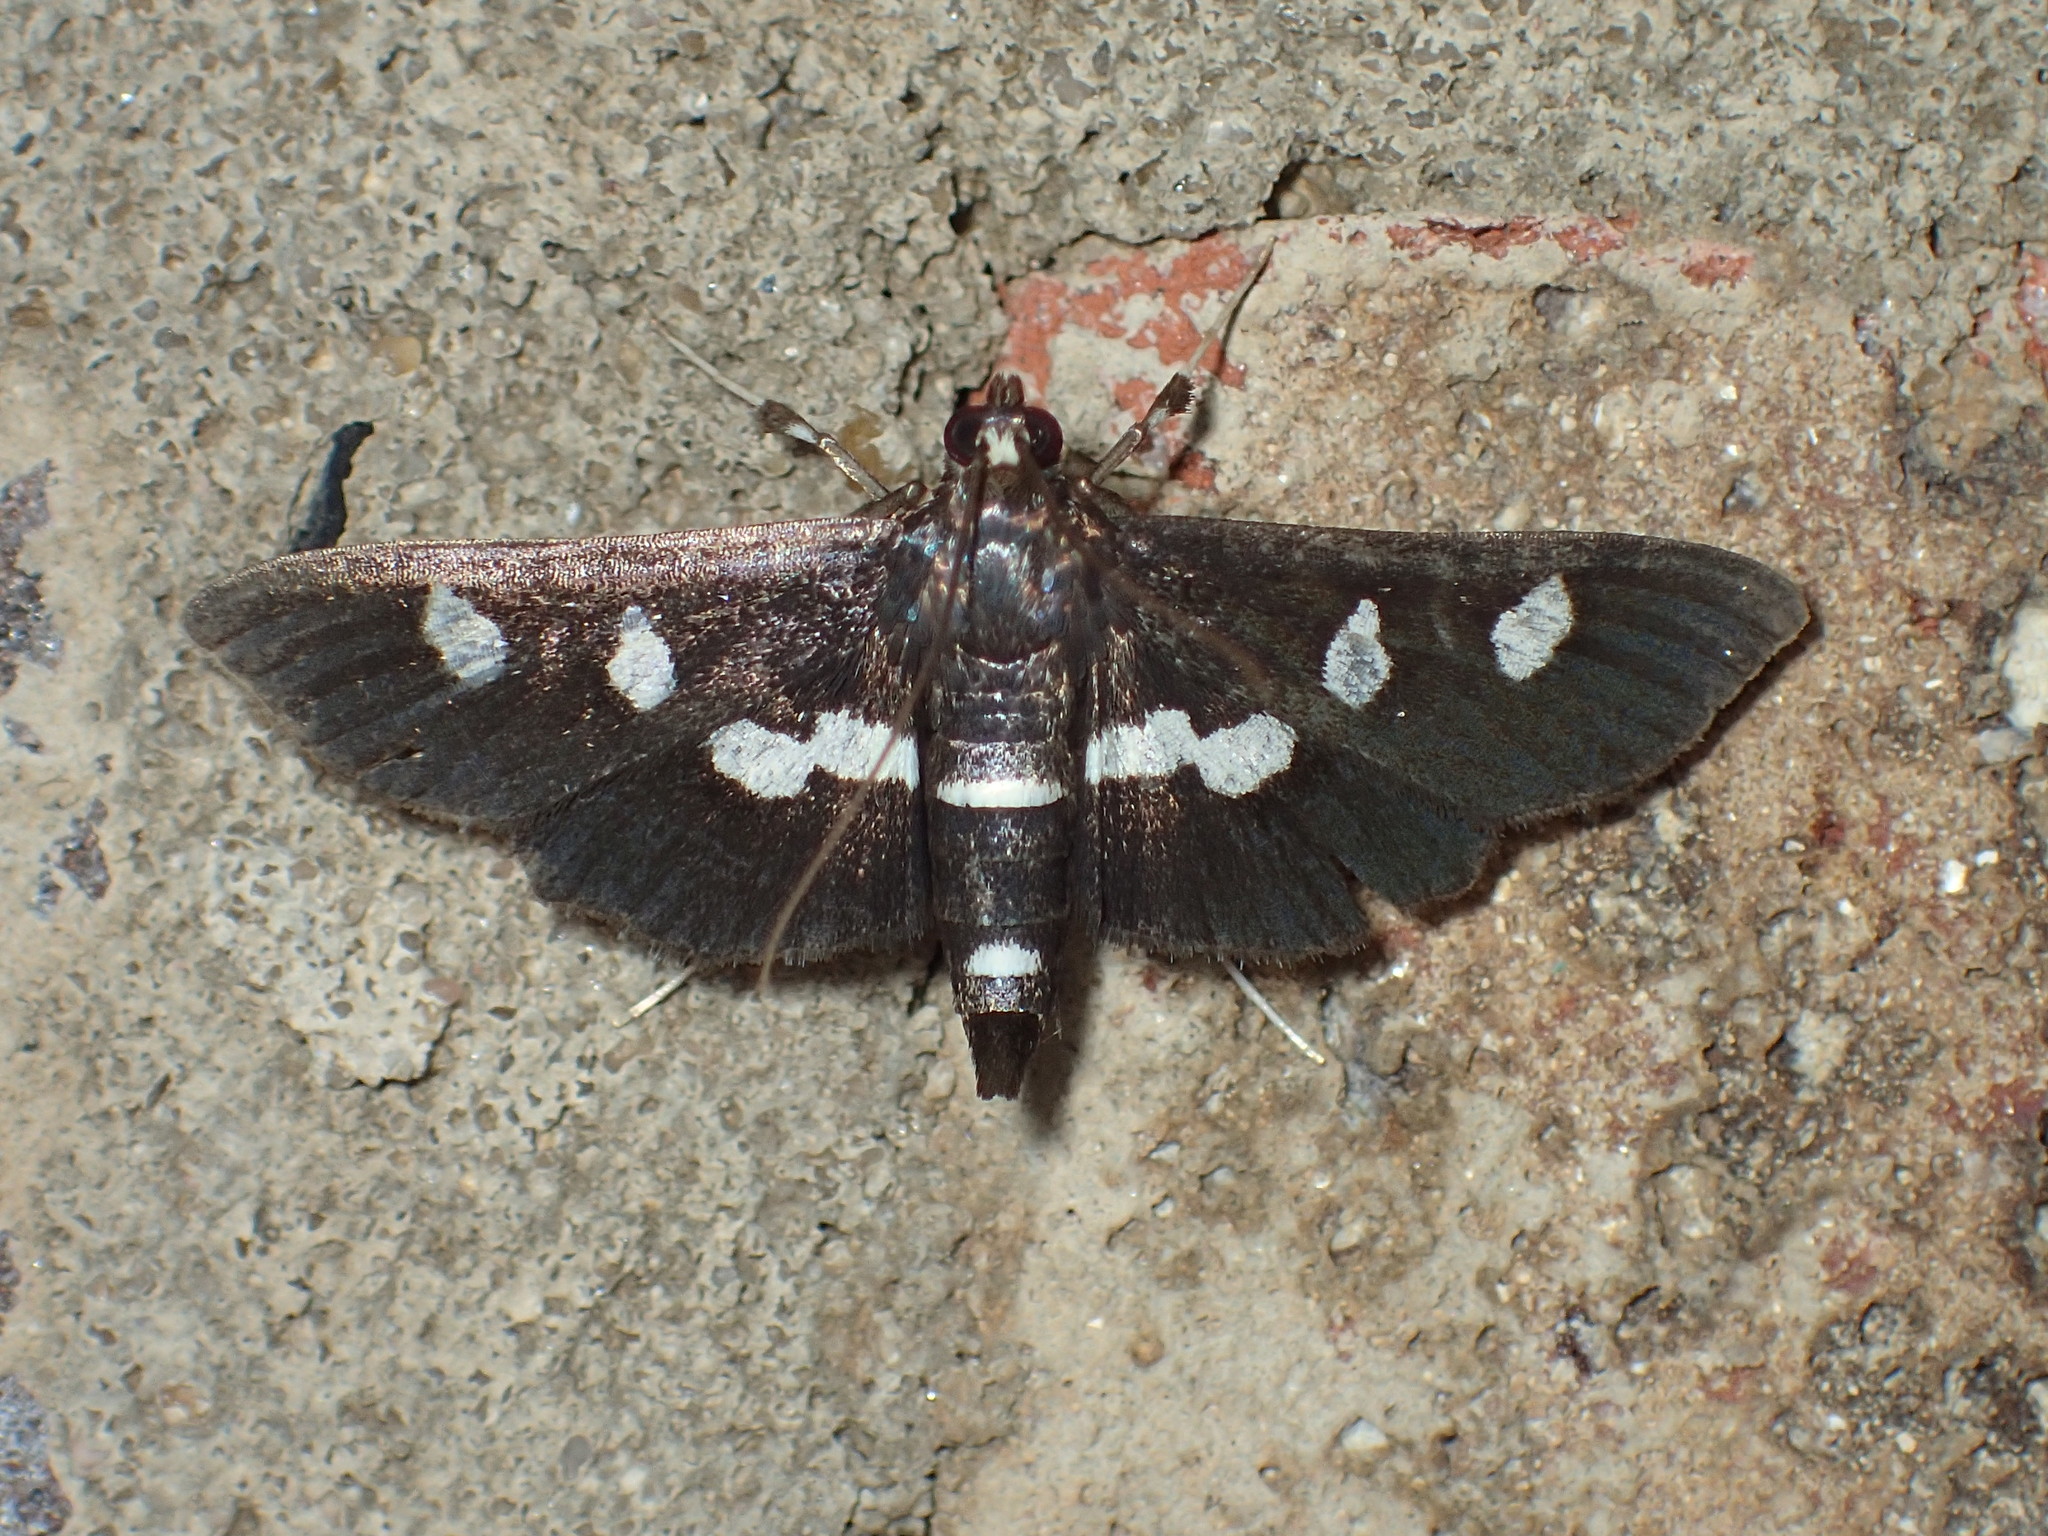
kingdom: Animalia
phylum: Arthropoda
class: Insecta
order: Lepidoptera
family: Crambidae
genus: Desmia
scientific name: Desmia
